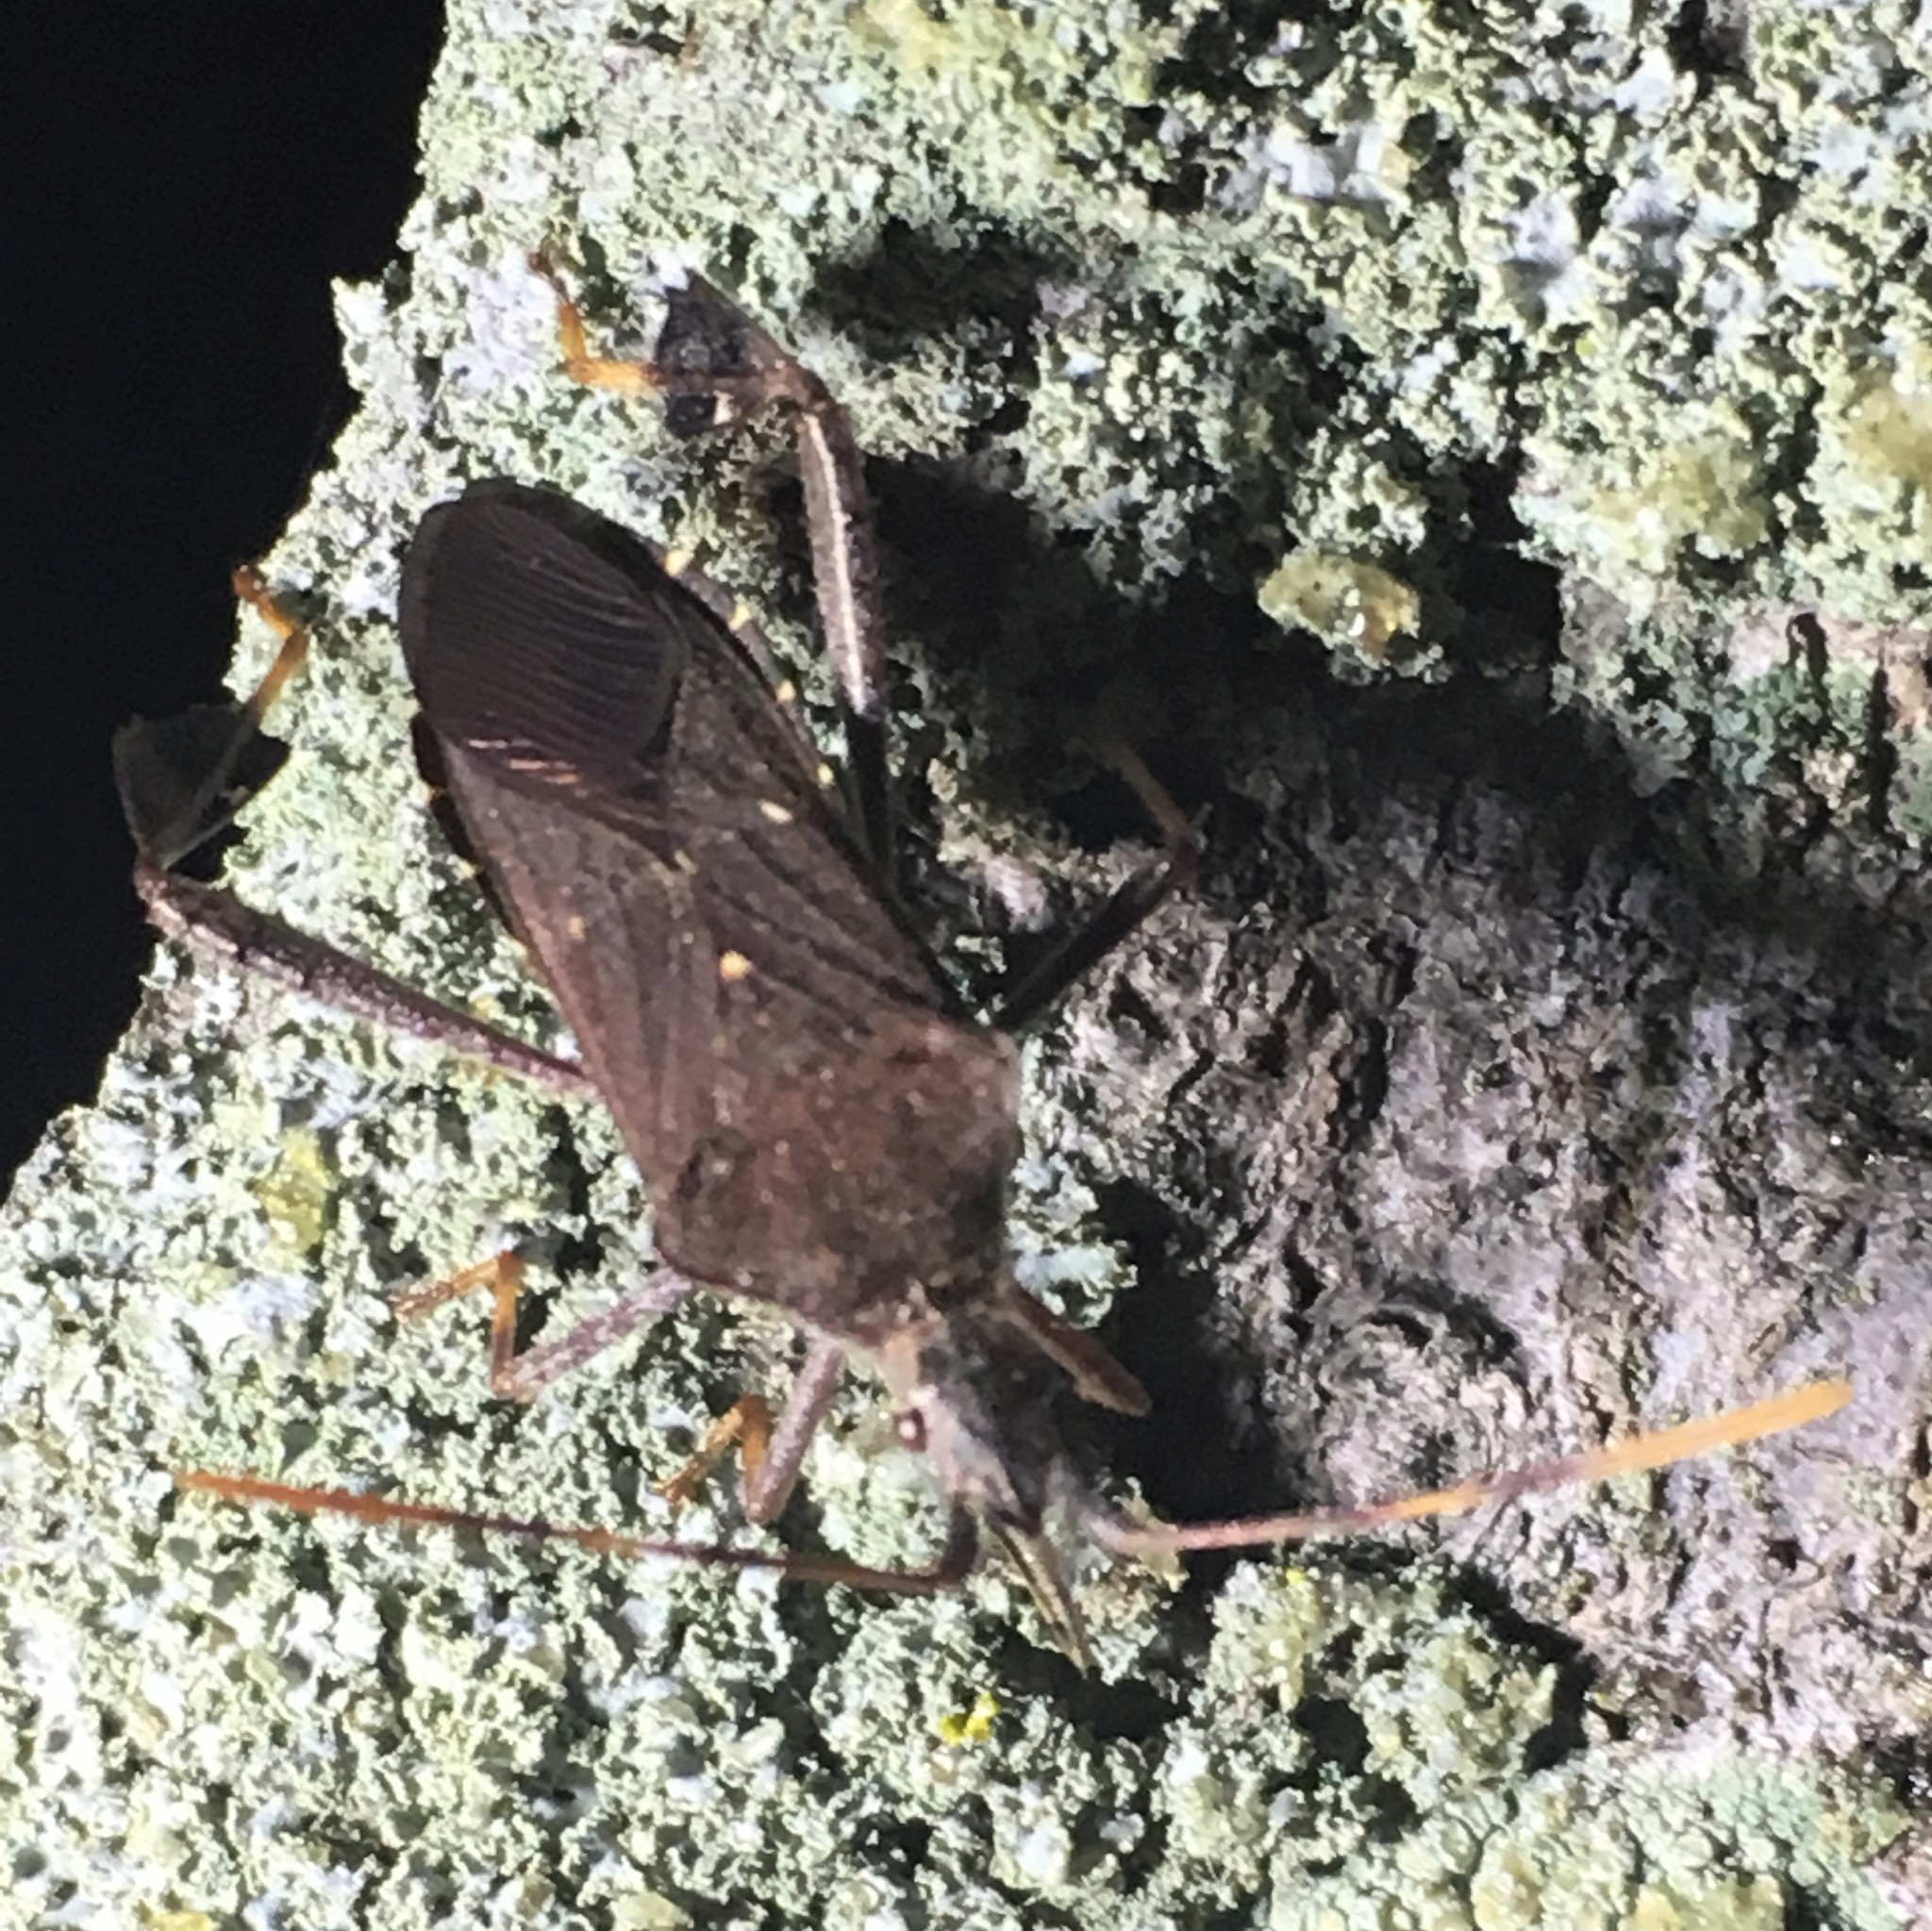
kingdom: Animalia
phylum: Arthropoda
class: Insecta
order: Hemiptera
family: Coreidae
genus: Leptoglossus
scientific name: Leptoglossus oppositus
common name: Northern leaf-footed bug
